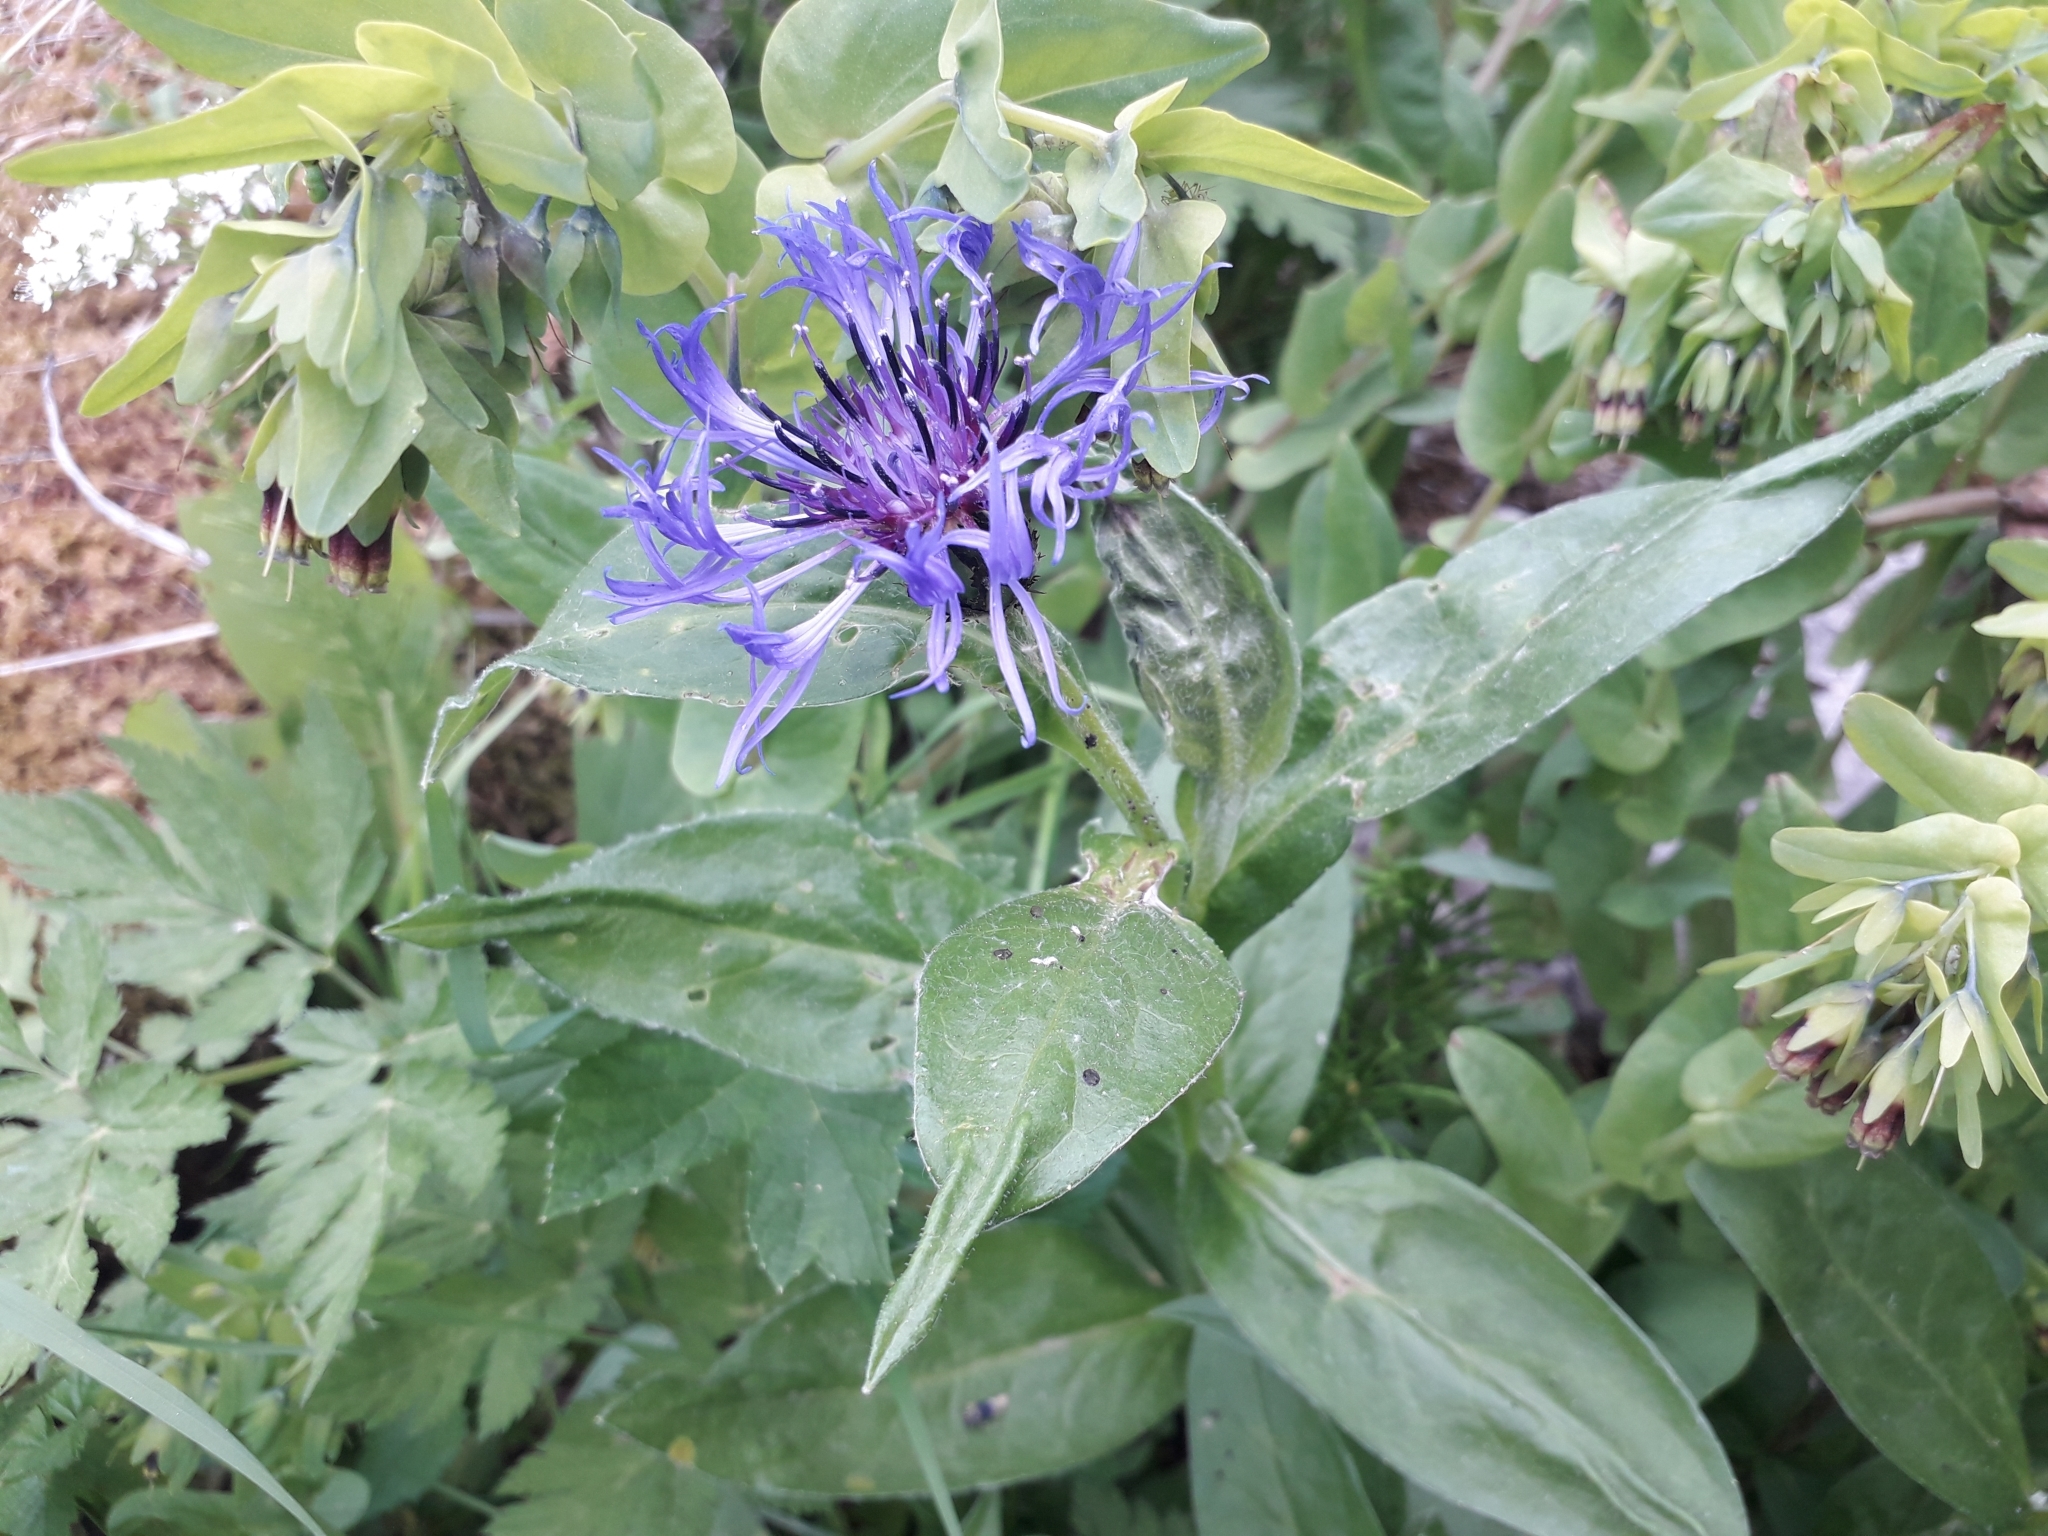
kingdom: Plantae
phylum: Tracheophyta
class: Magnoliopsida
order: Asterales
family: Asteraceae
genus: Centaurea
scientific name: Centaurea montana
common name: Perennial cornflower
